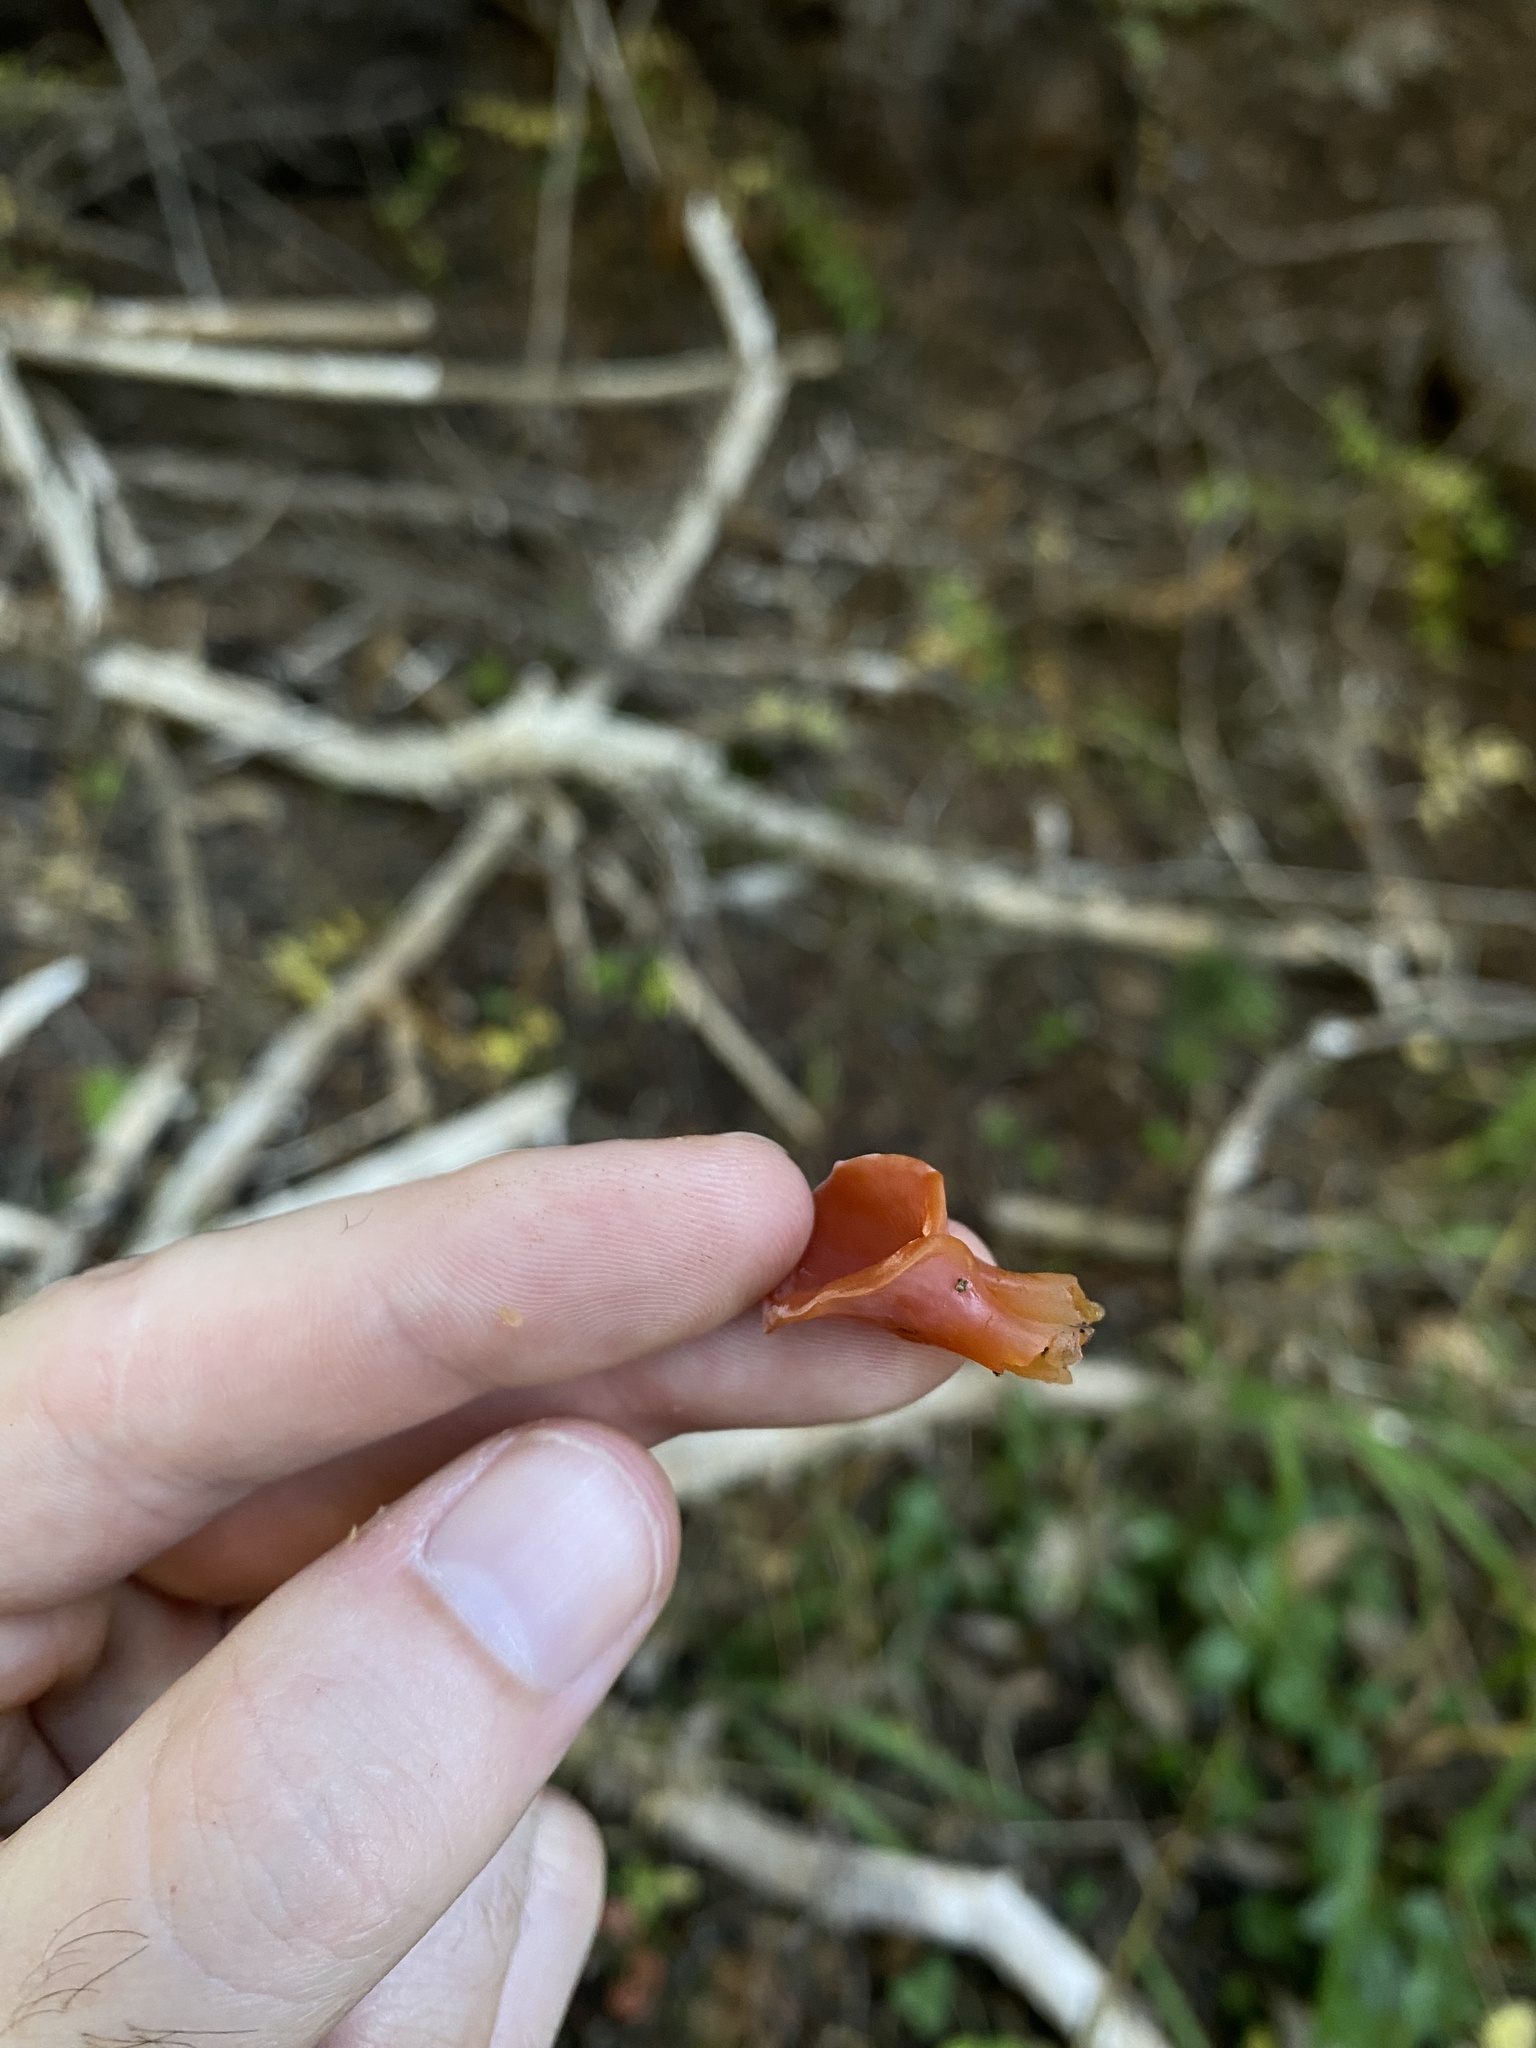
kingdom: Fungi
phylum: Basidiomycota
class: Agaricomycetes
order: Auriculariales
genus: Guepinia
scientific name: Guepinia helvelloides
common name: Salmon salad
